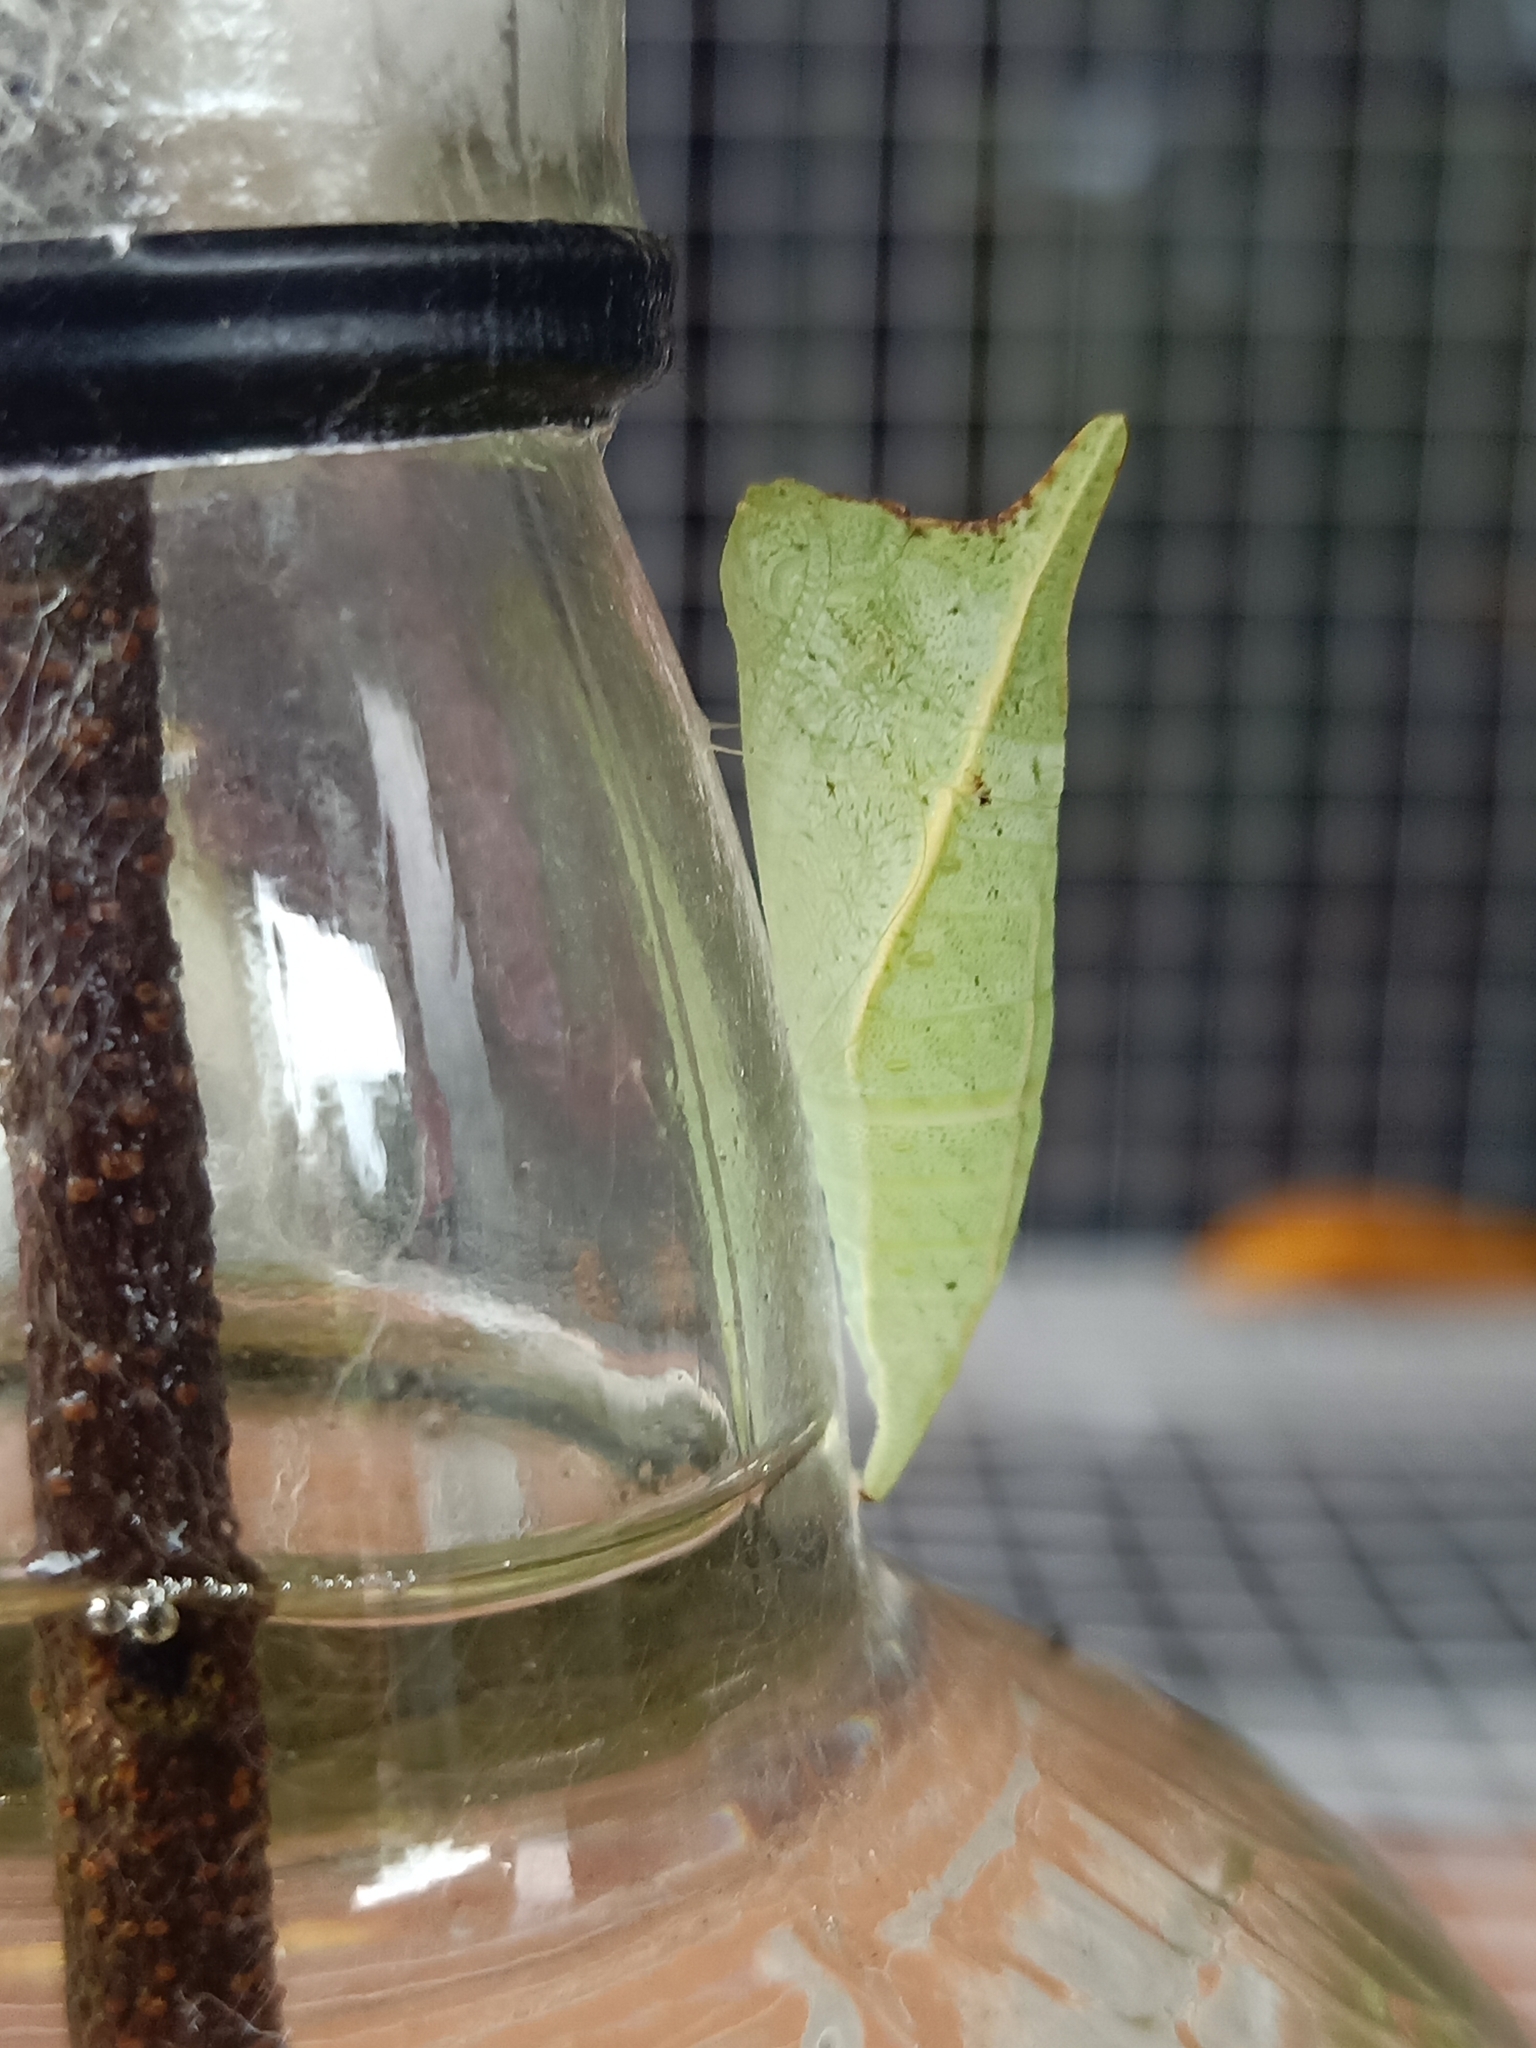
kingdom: Animalia
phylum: Arthropoda
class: Insecta
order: Lepidoptera
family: Papilionidae
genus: Graphium
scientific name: Graphium doson
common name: Common jay
